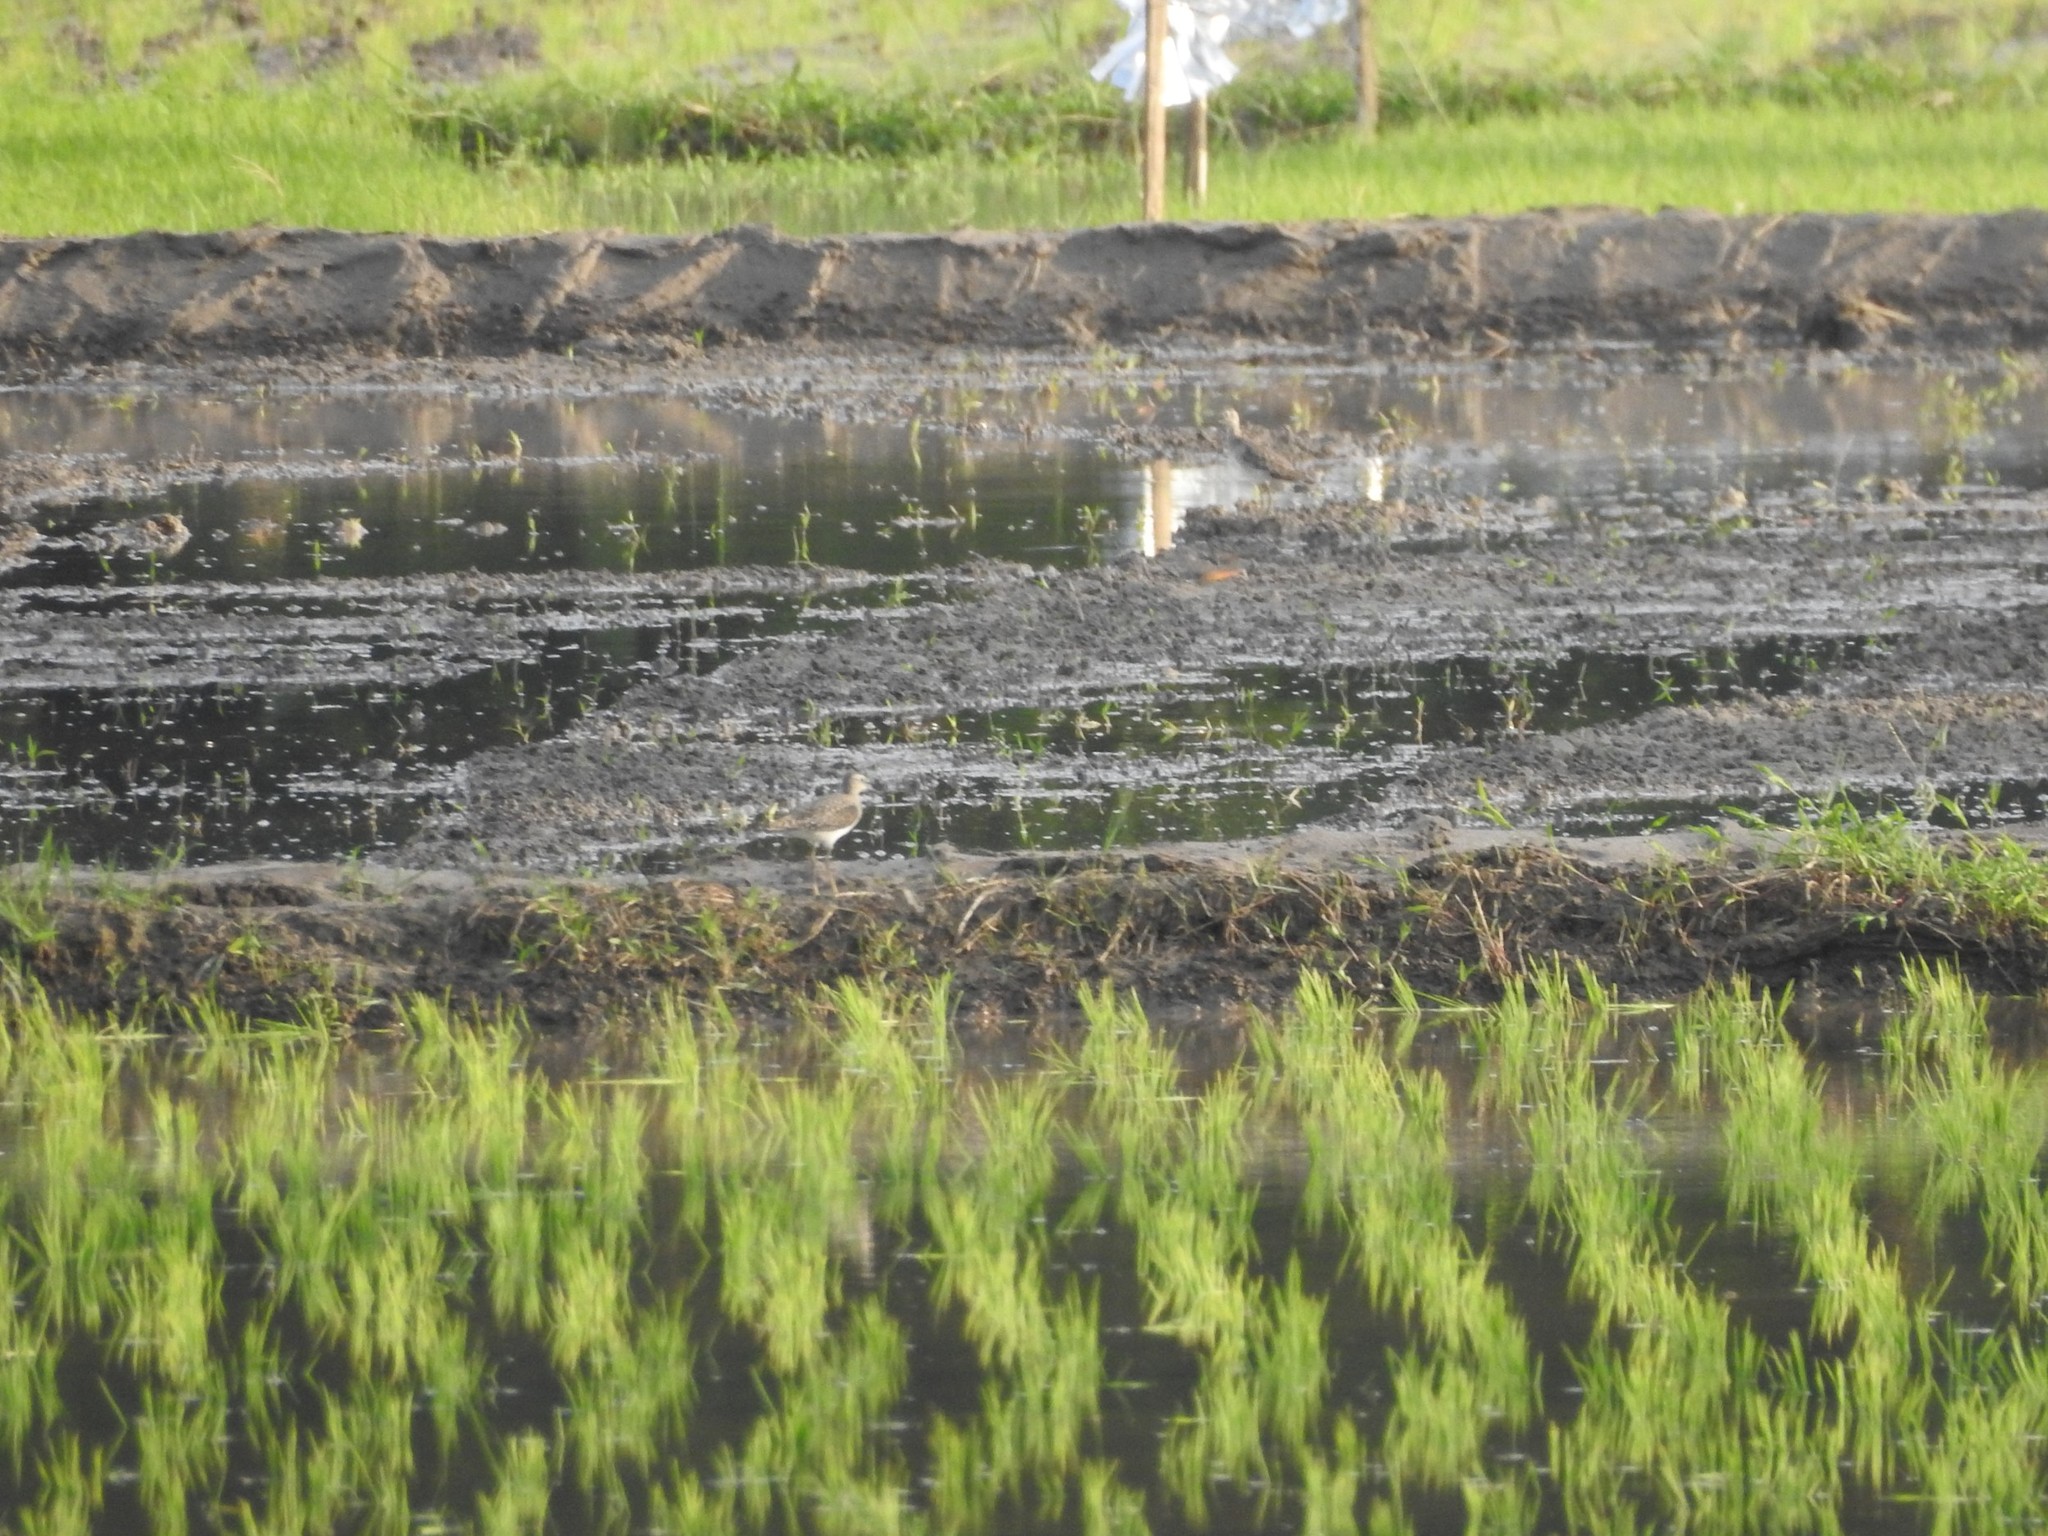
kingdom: Animalia
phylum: Chordata
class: Aves
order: Charadriiformes
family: Scolopacidae
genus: Tringa
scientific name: Tringa glareola
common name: Wood sandpiper
